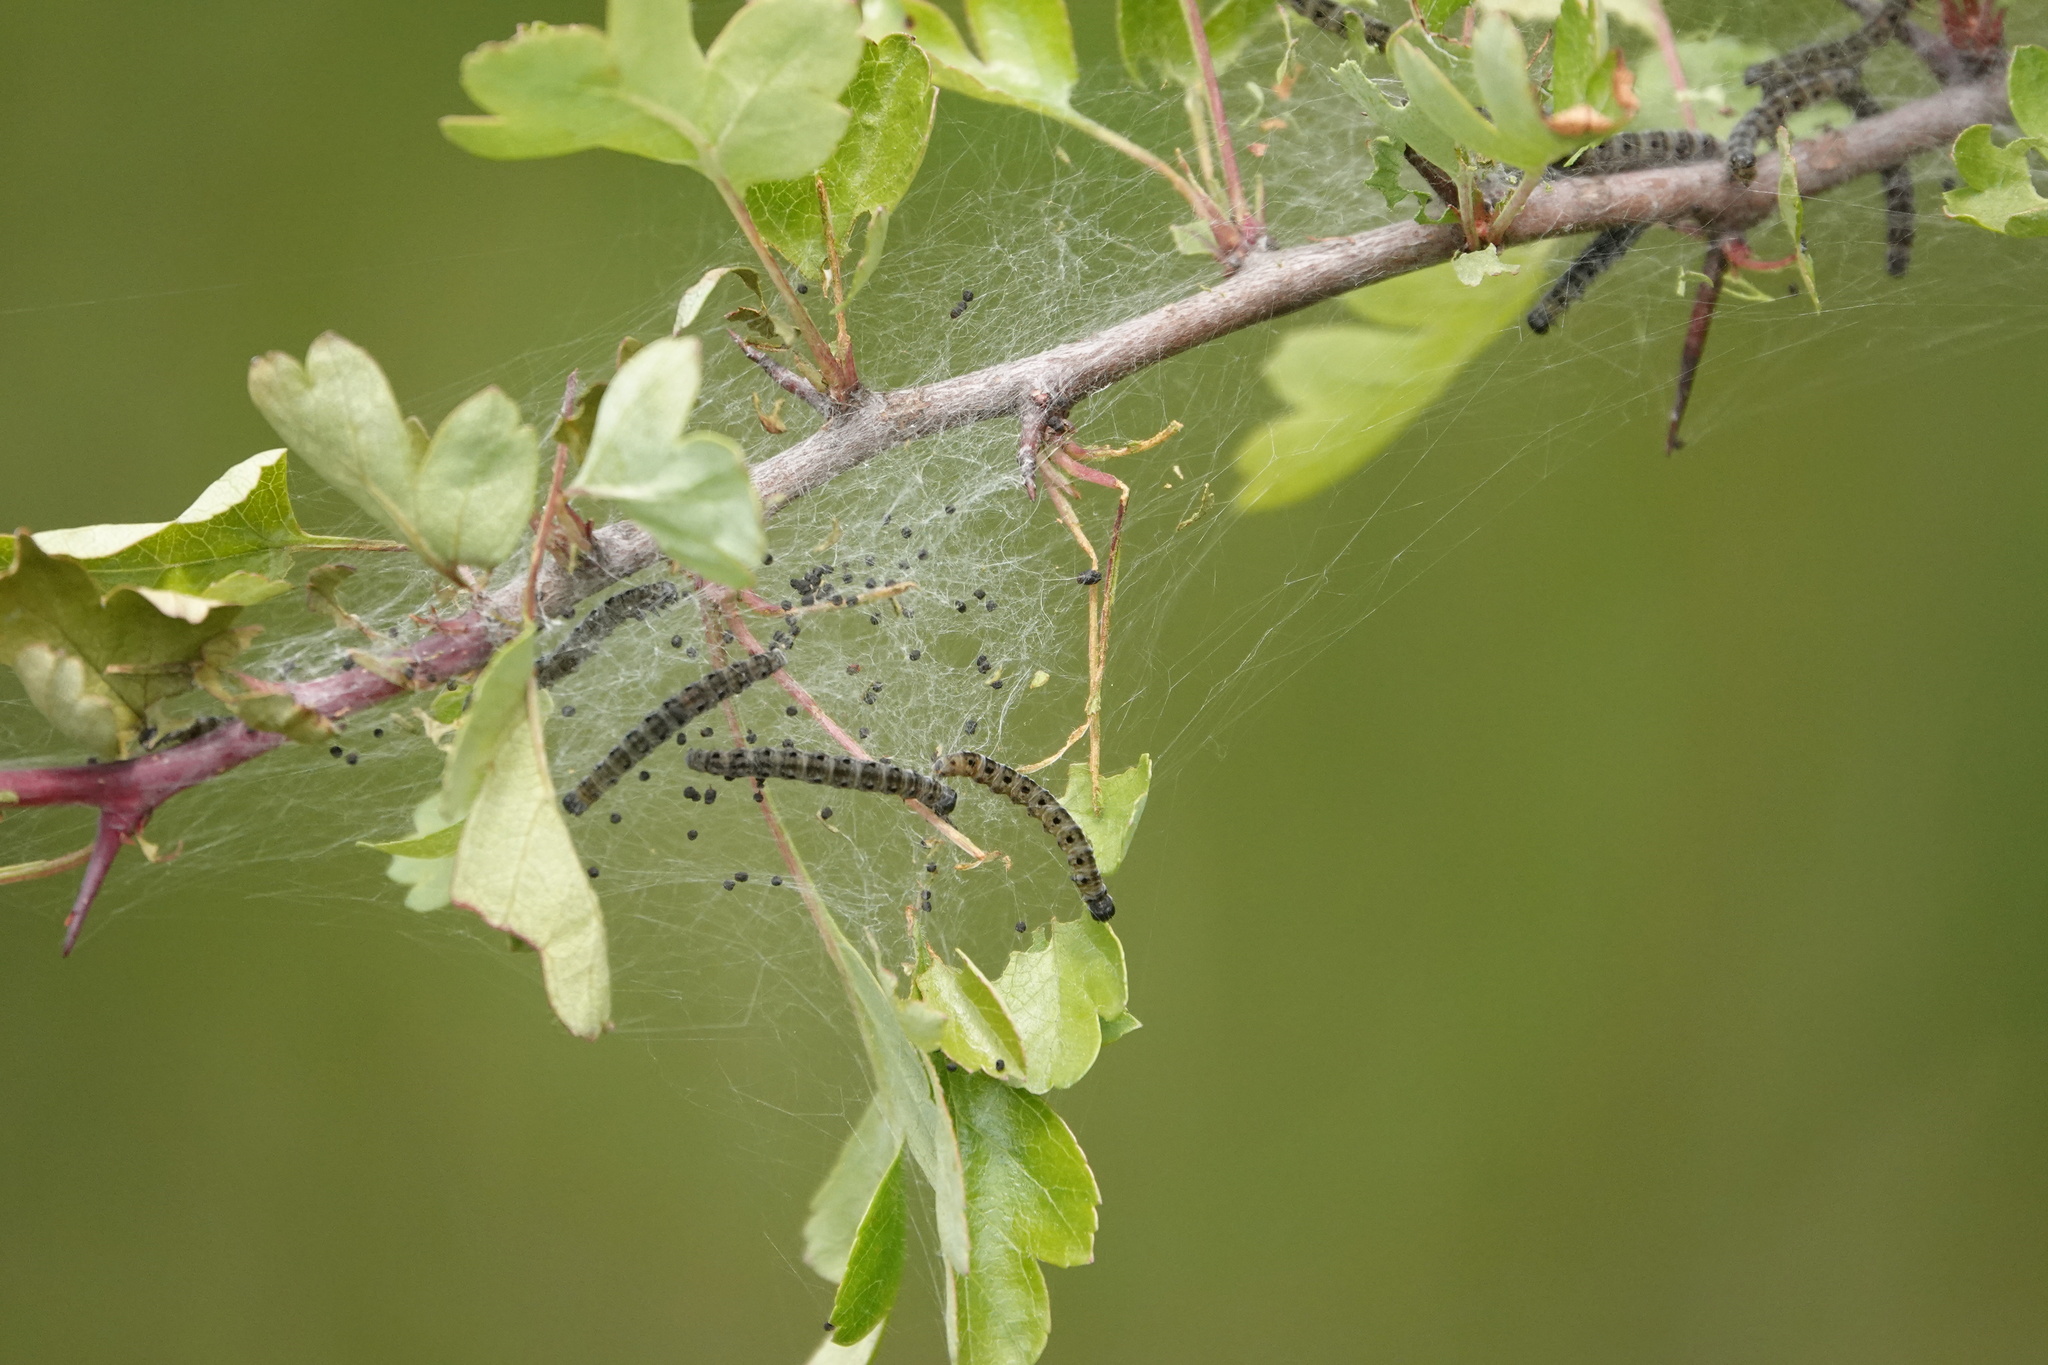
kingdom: Animalia
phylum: Arthropoda
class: Insecta
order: Lepidoptera
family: Yponomeutidae
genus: Yponomeuta
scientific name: Yponomeuta padella
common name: Orchard ermine
